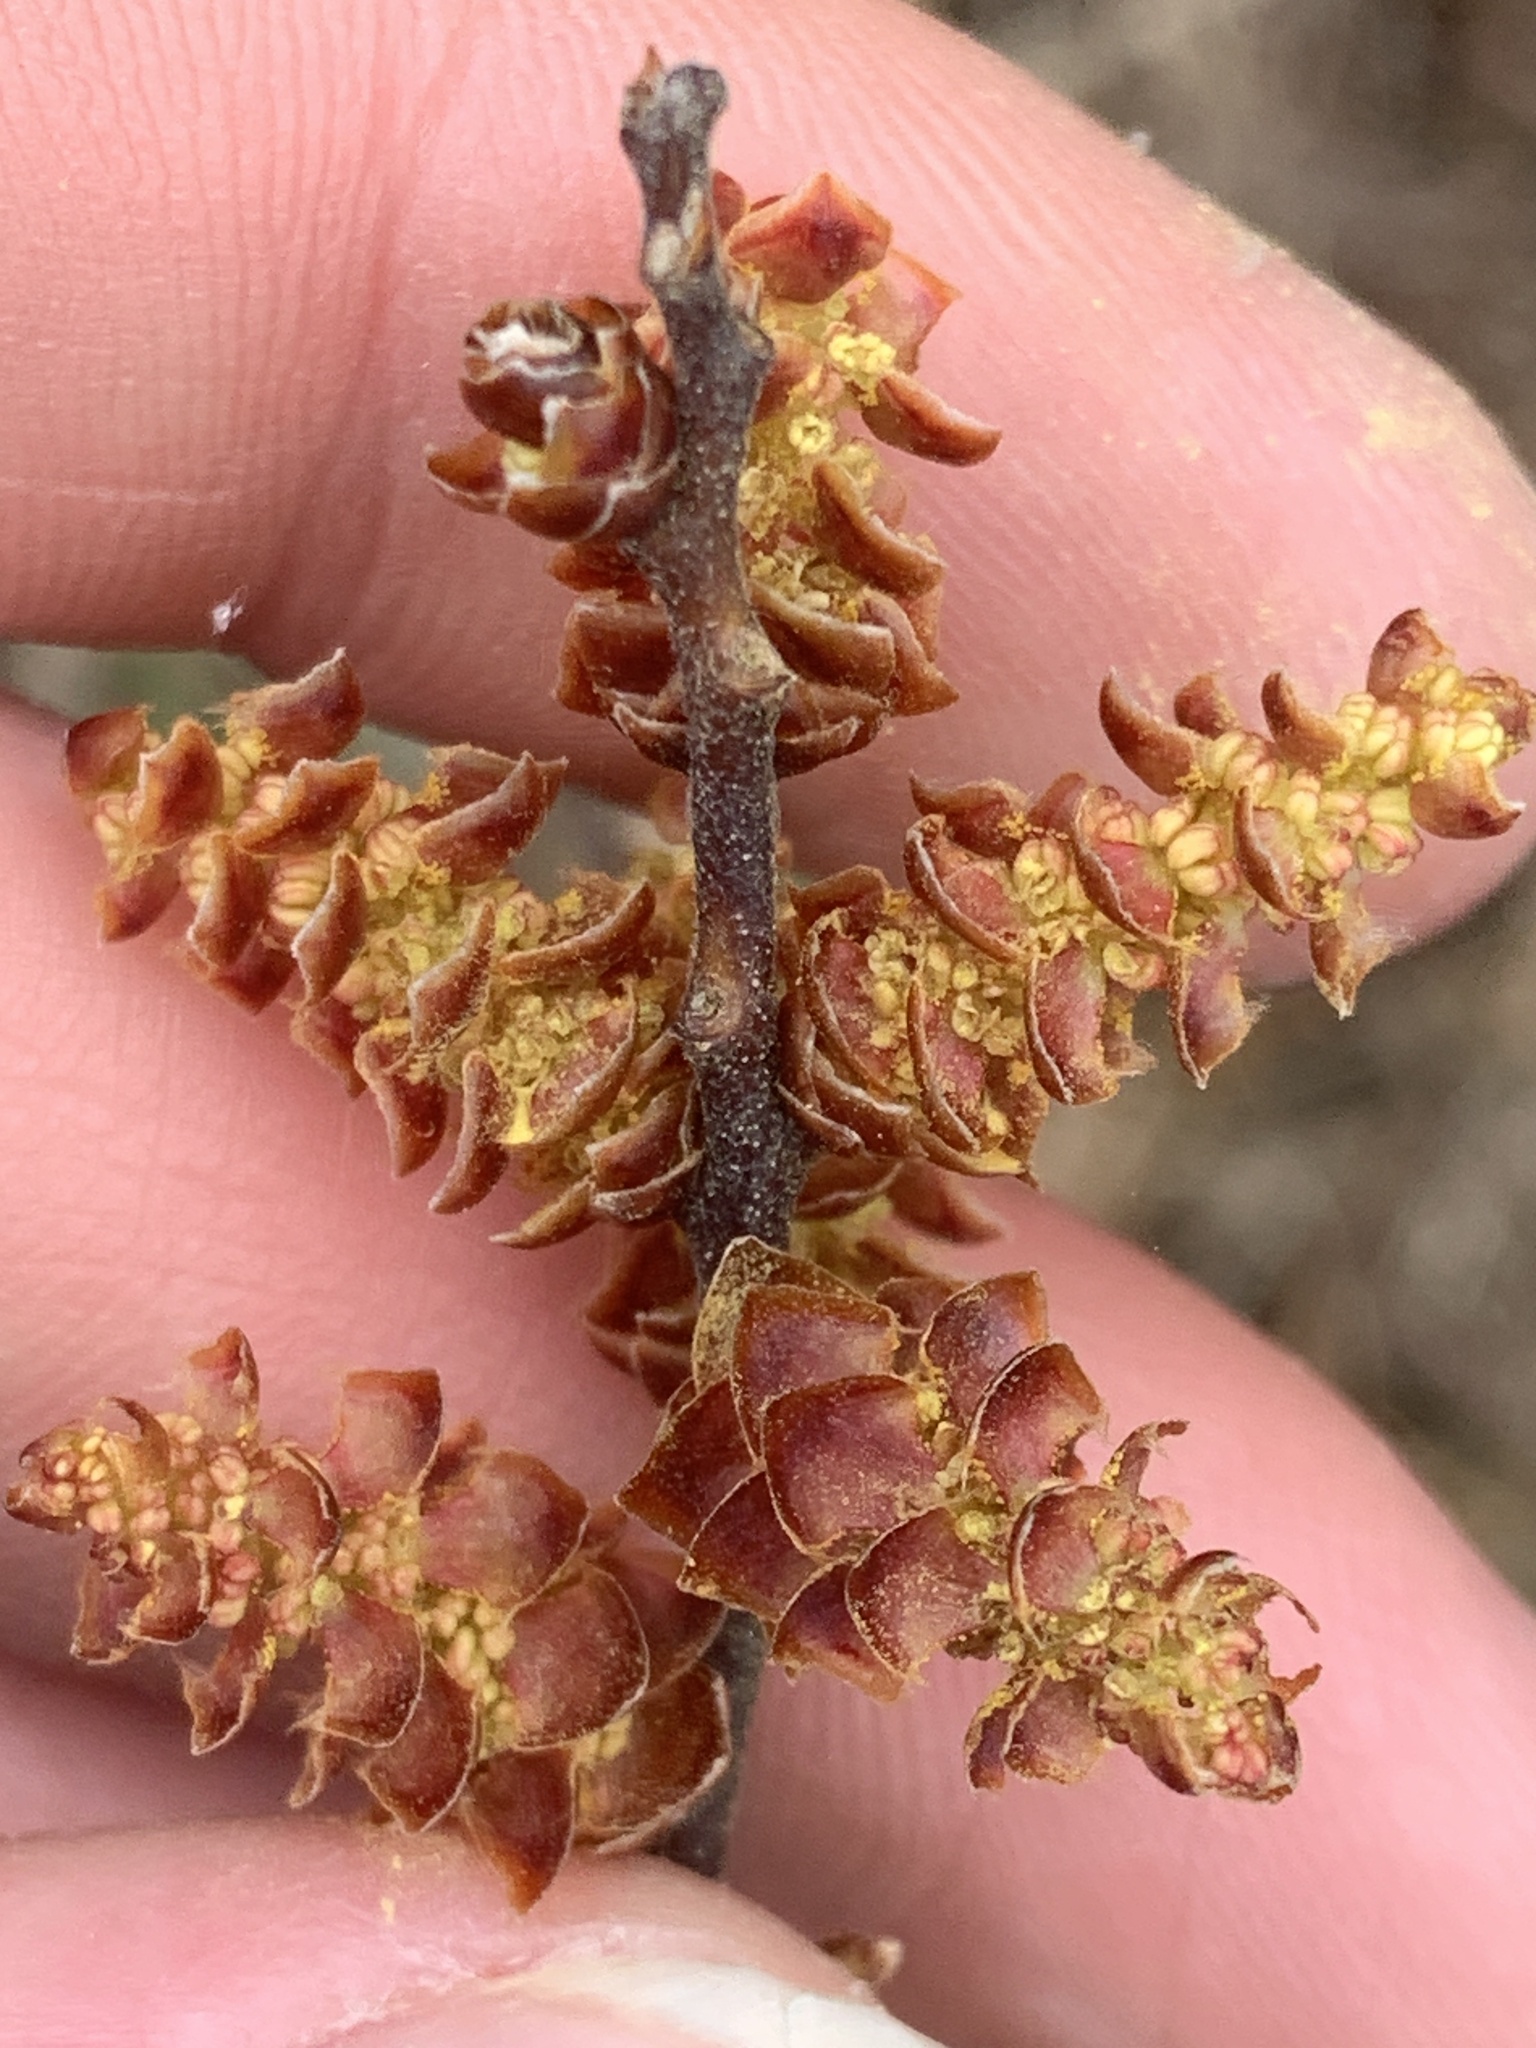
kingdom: Plantae
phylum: Tracheophyta
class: Magnoliopsida
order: Fagales
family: Myricaceae
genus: Myrica
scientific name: Myrica gale
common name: Sweet gale
